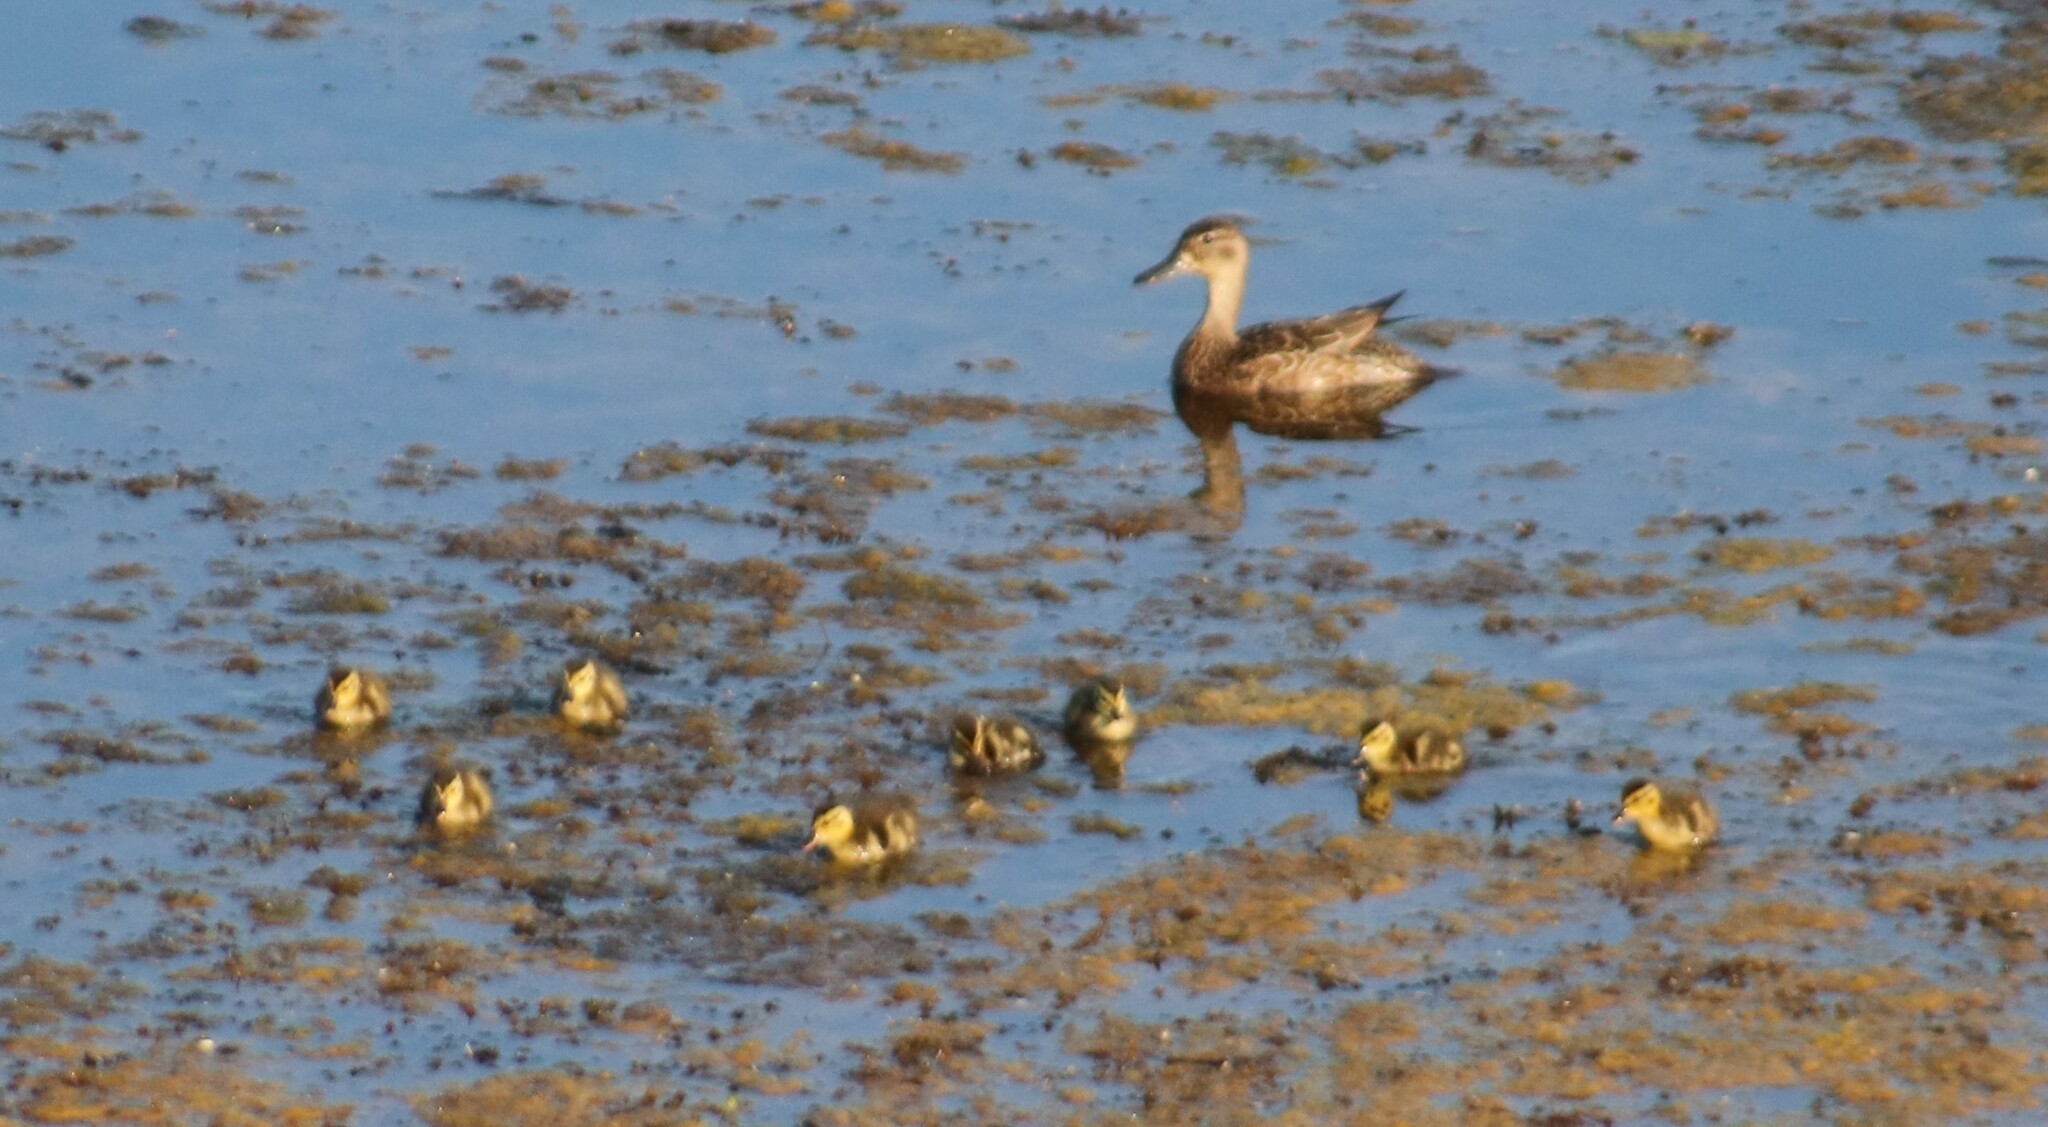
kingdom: Animalia
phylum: Chordata
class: Aves
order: Anseriformes
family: Anatidae
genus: Spatula
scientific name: Spatula discors
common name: Blue-winged teal
